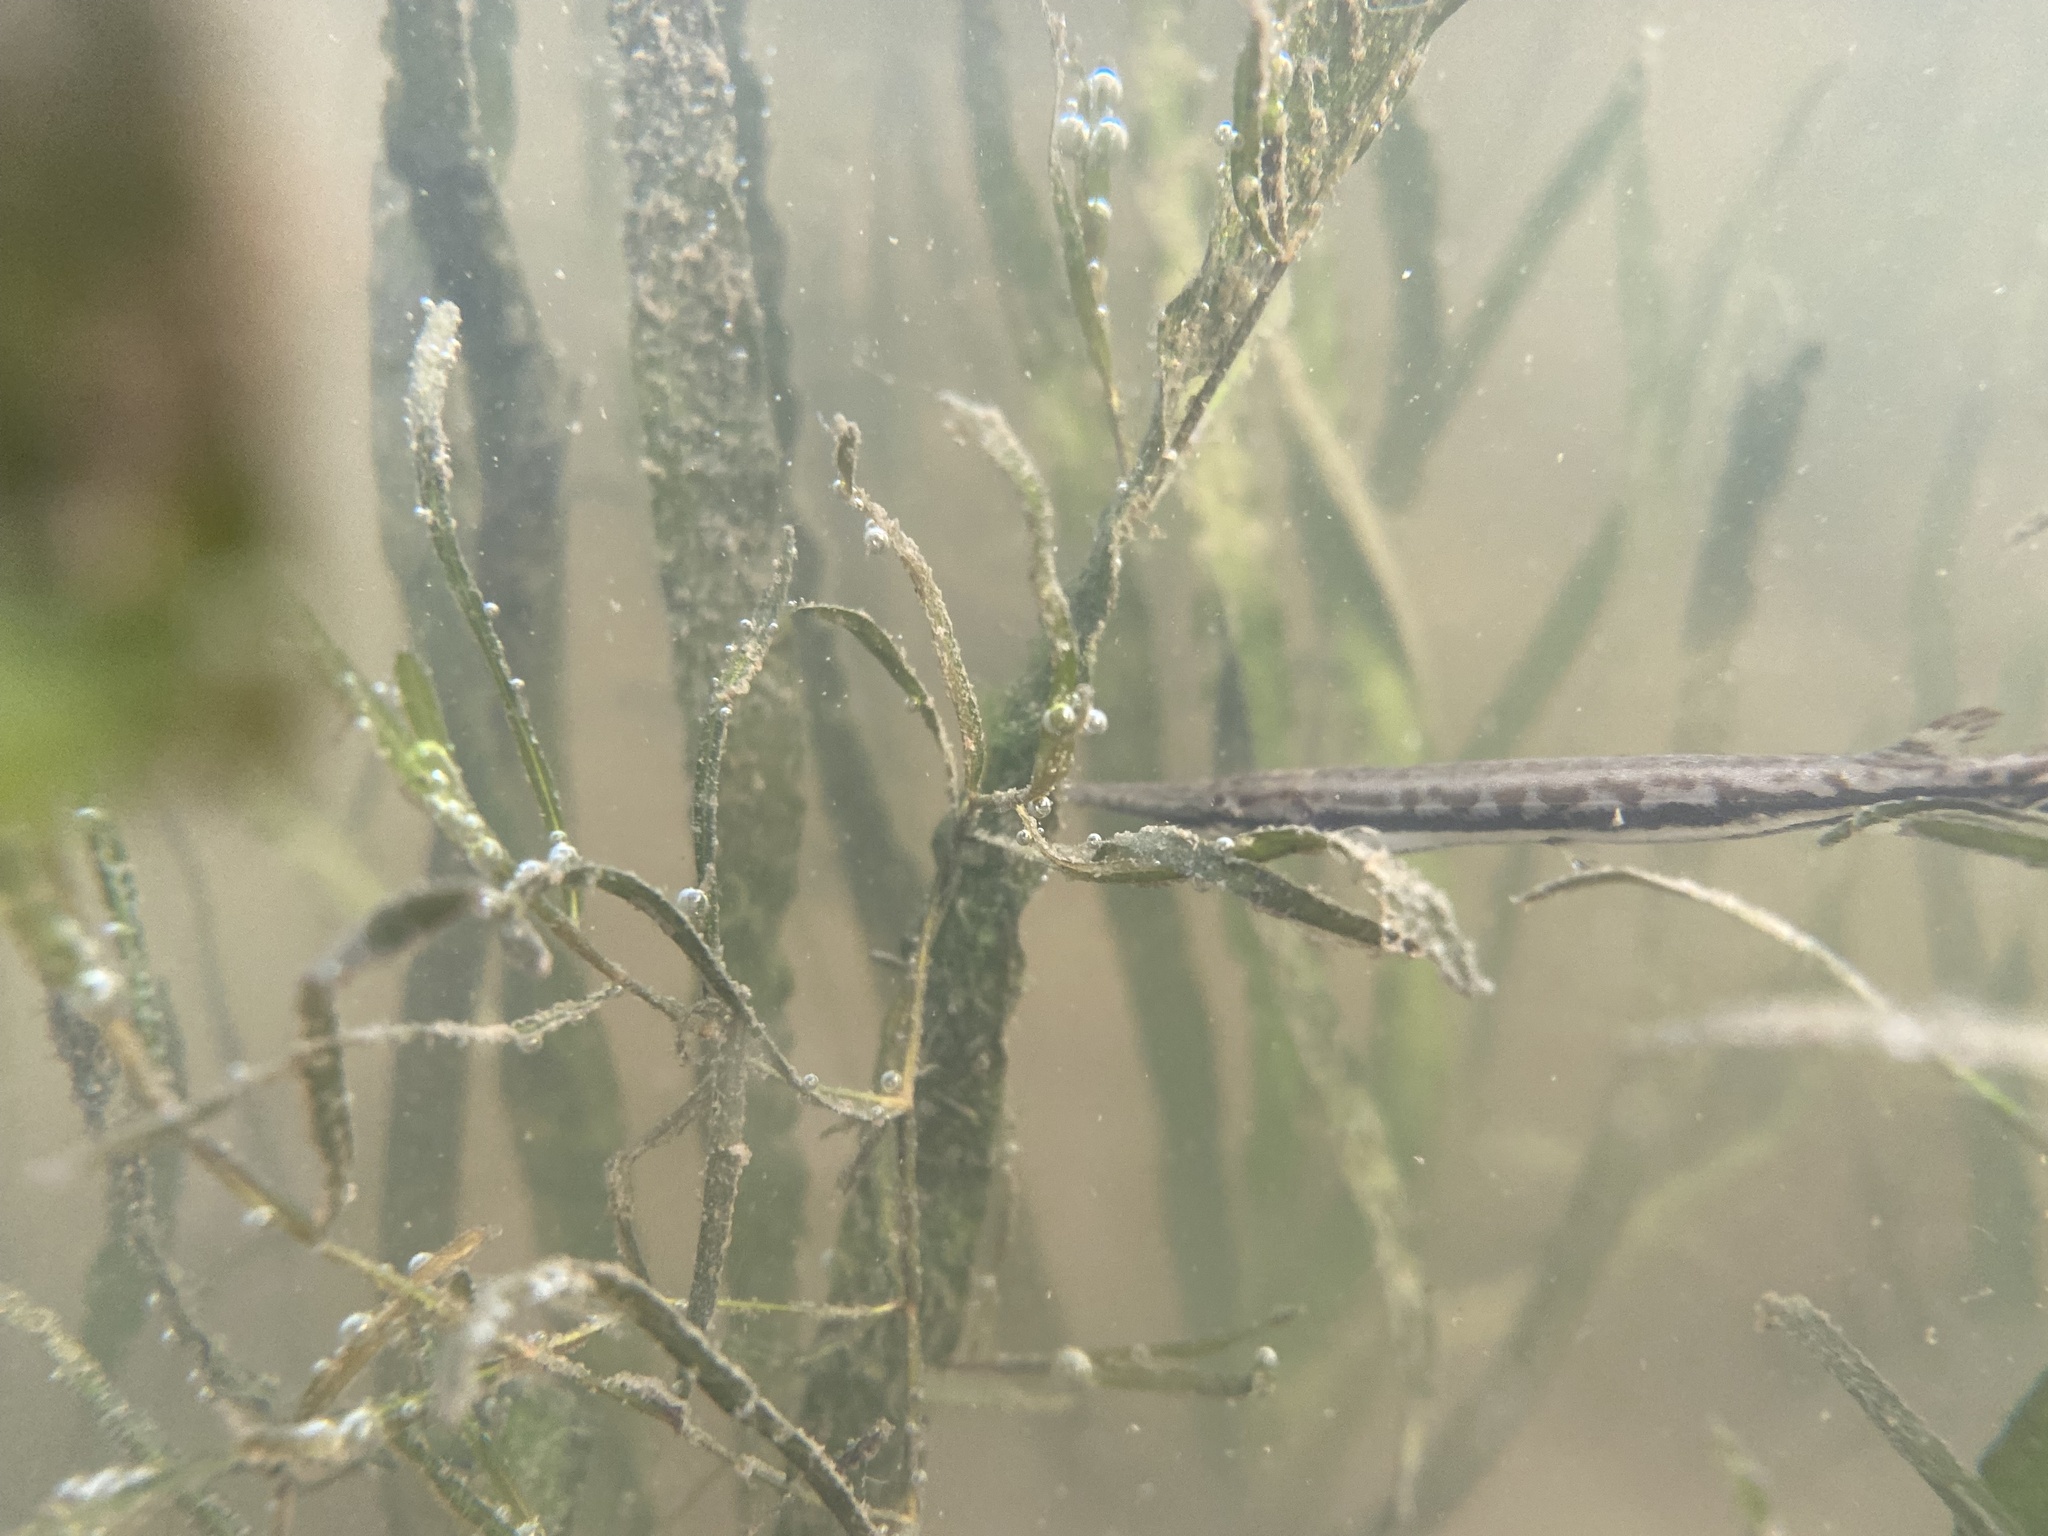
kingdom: Animalia
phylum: Chordata
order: Lepisosteiformes
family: Lepisosteidae
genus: Lepisosteus
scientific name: Lepisosteus osseus
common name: Longnose gar
